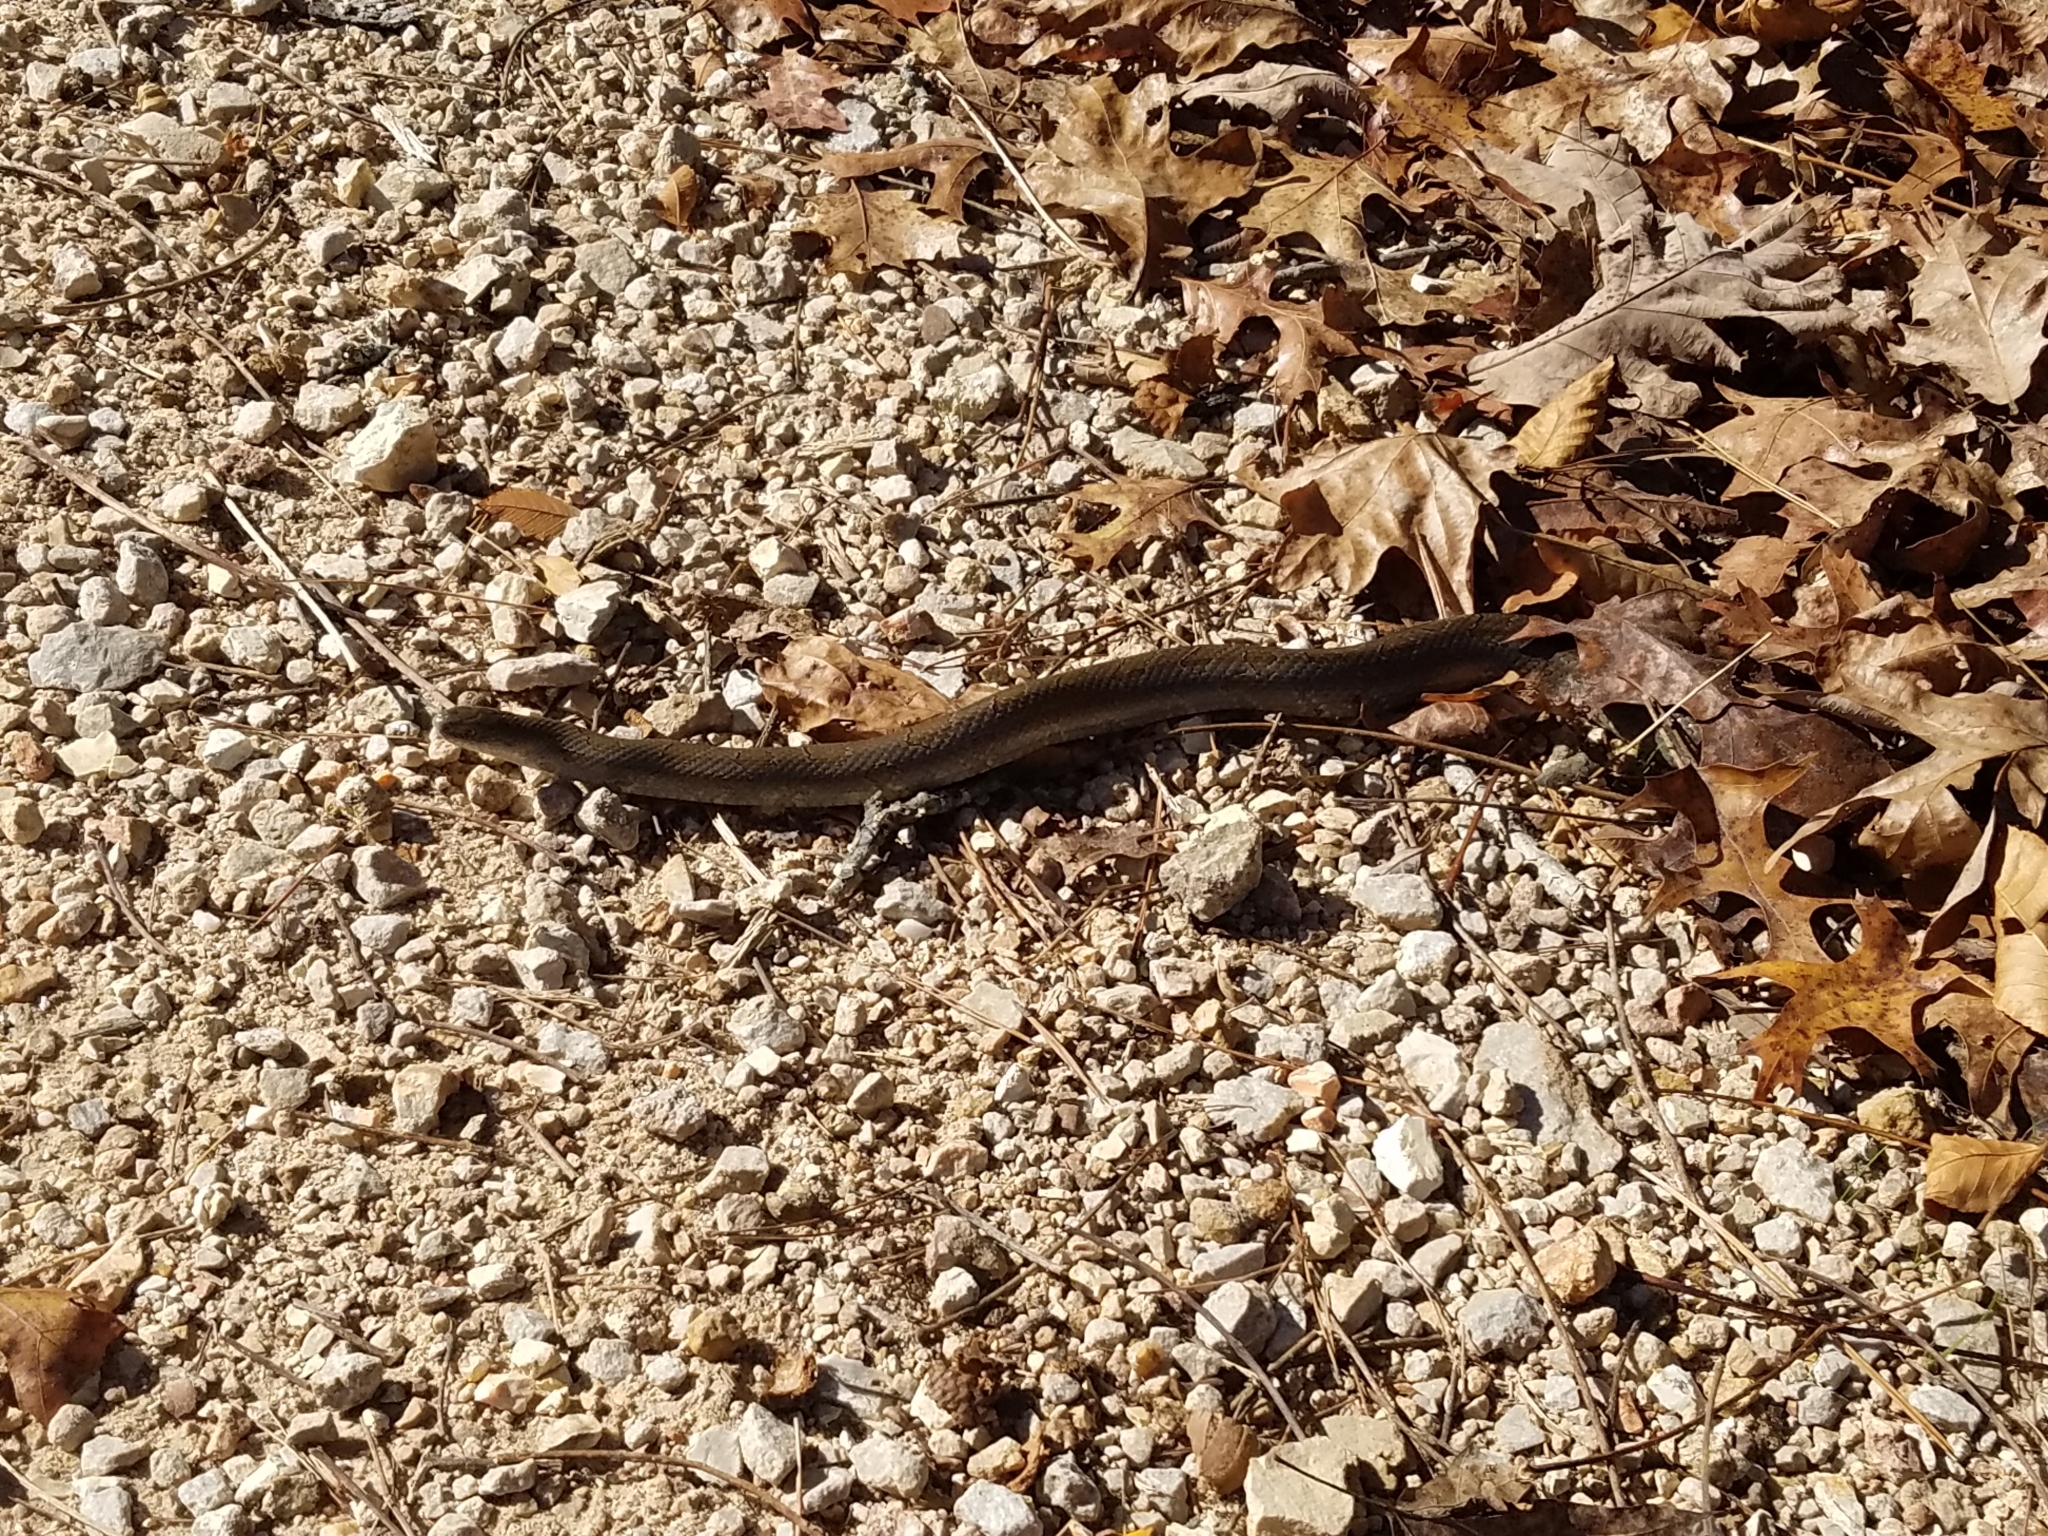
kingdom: Animalia
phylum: Chordata
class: Squamata
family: Colubridae
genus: Lampropeltis
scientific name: Lampropeltis calligaster
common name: Prairie kingsnake
